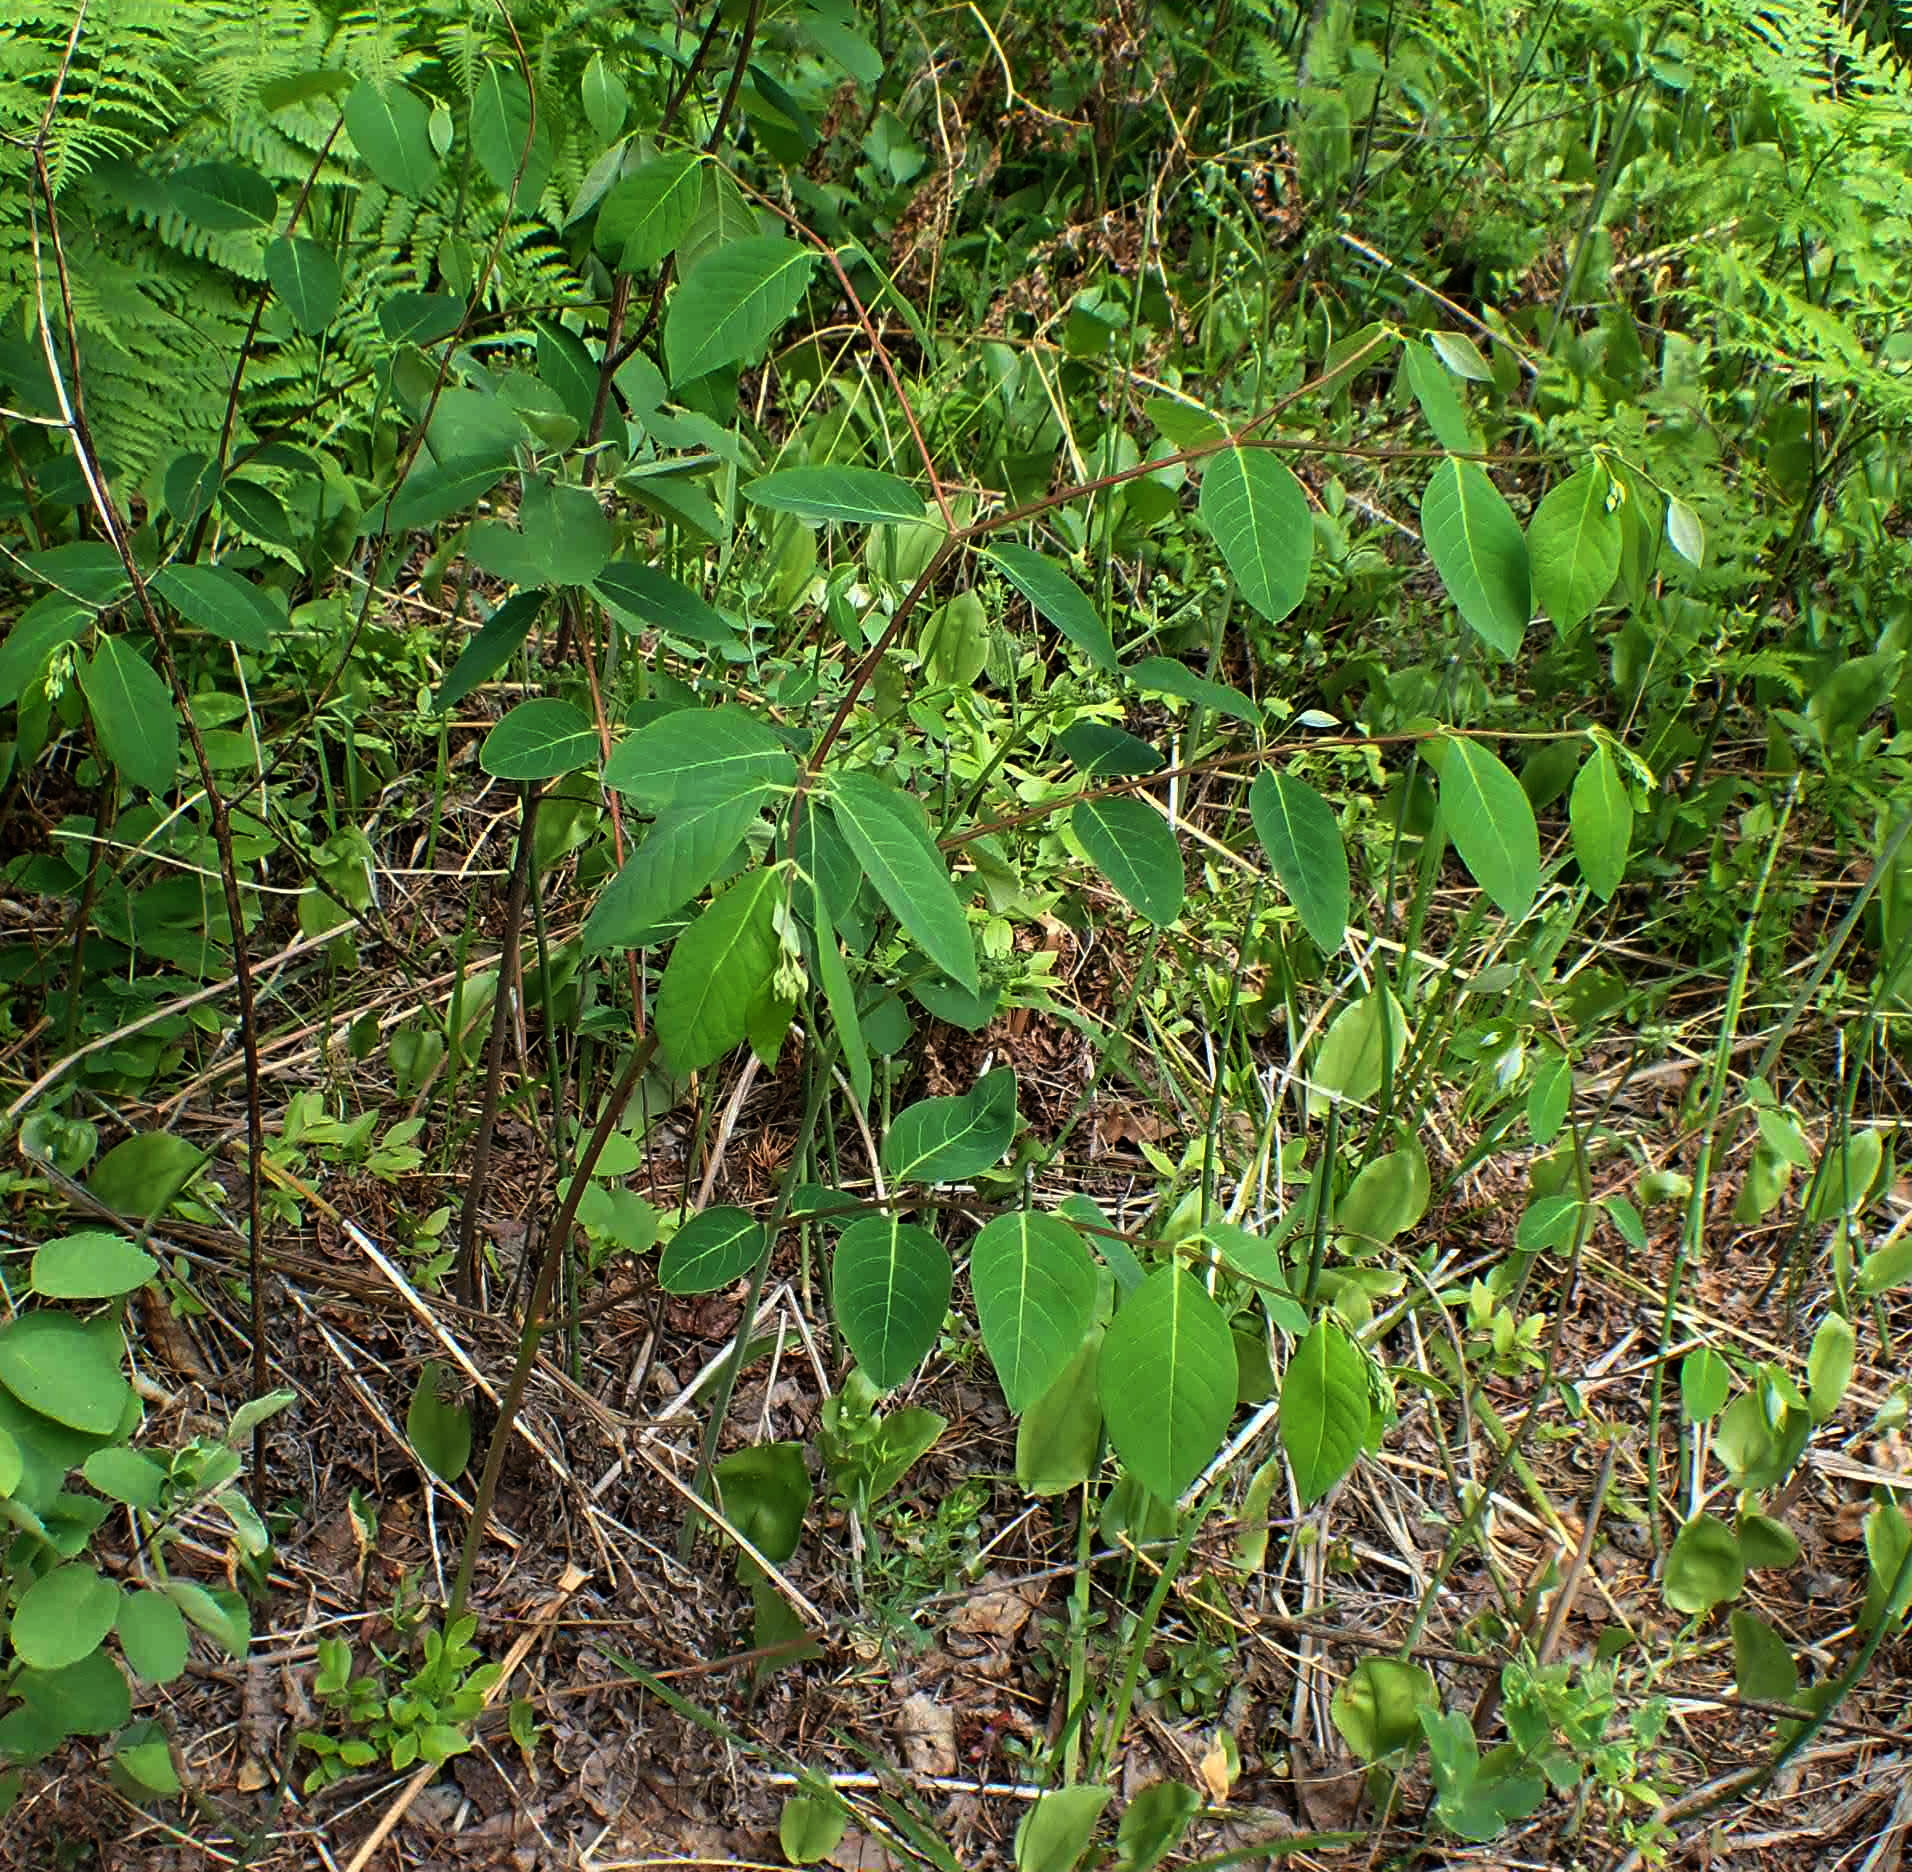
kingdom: Plantae
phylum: Tracheophyta
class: Magnoliopsida
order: Gentianales
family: Apocynaceae
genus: Apocynum
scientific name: Apocynum androsaemifolium
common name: Spreading dogbane
